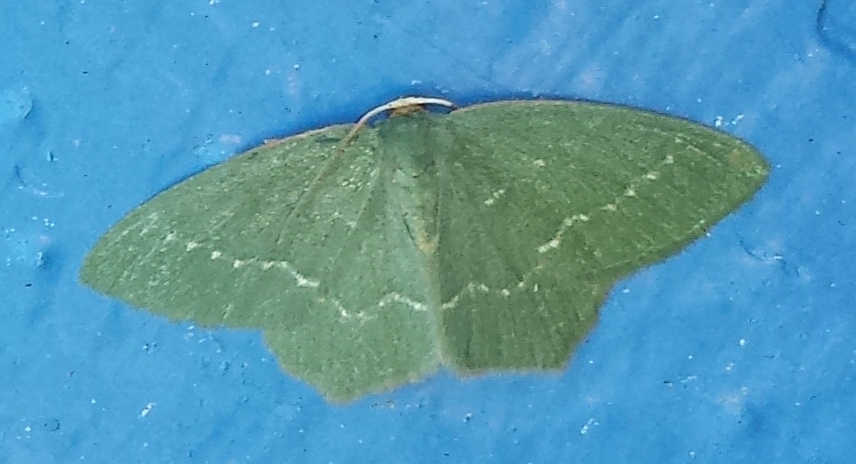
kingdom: Animalia
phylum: Arthropoda
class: Insecta
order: Lepidoptera
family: Geometridae
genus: Thalera
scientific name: Thalera pistasciaria
